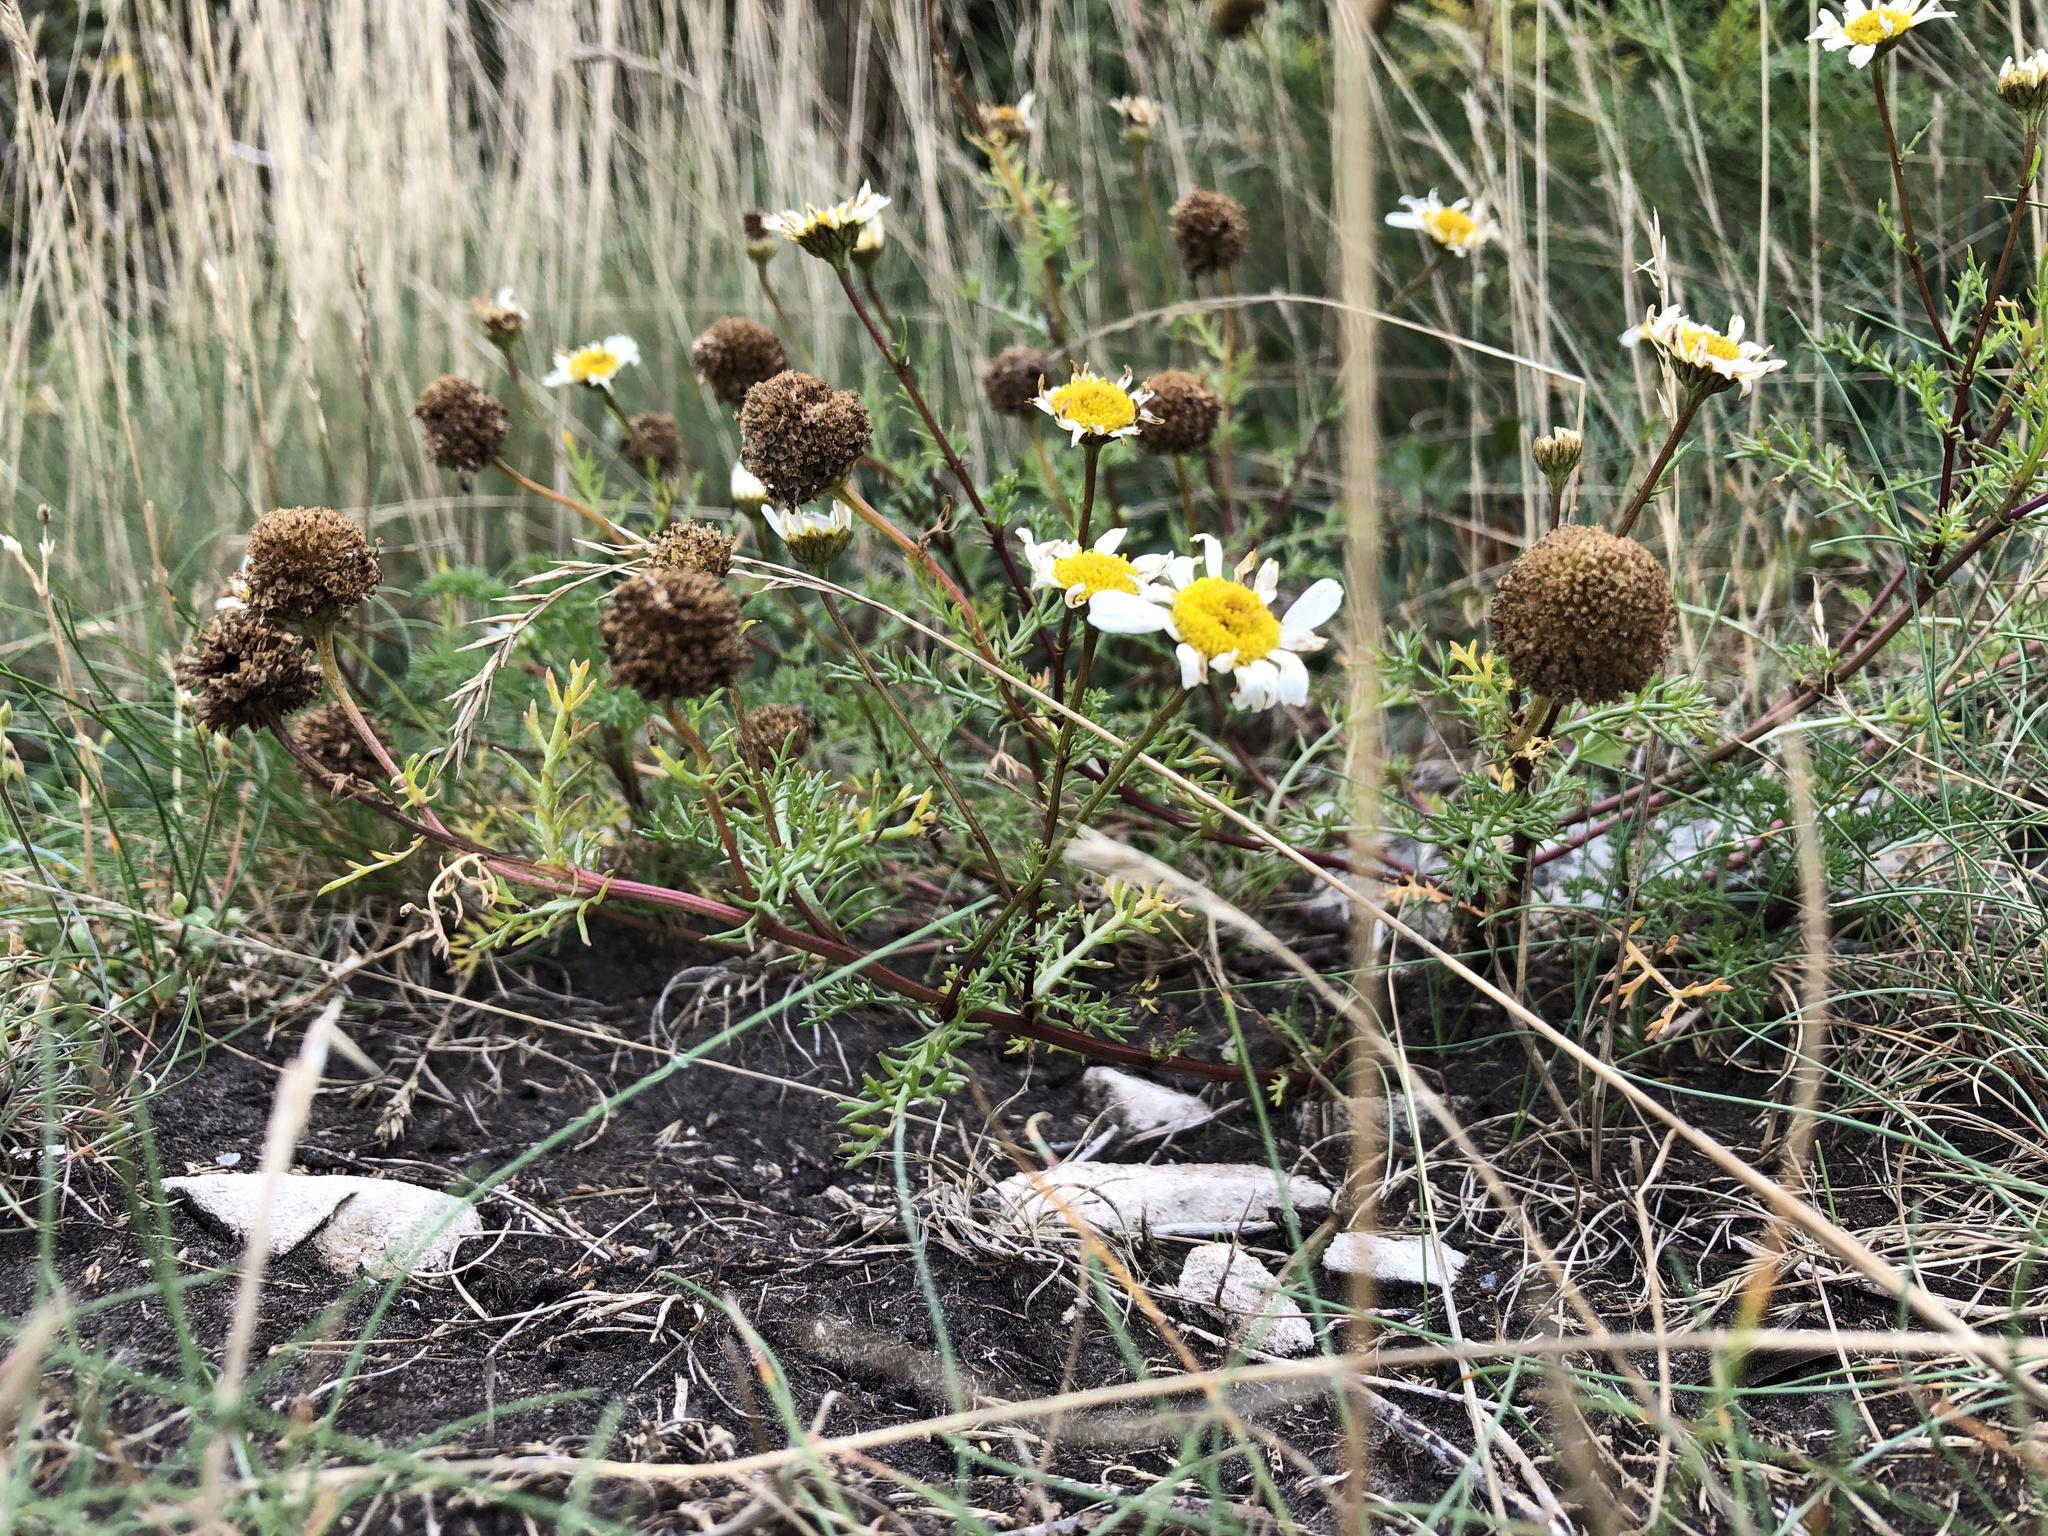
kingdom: Plantae
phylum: Tracheophyta
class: Magnoliopsida
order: Asterales
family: Asteraceae
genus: Tripleurospermum
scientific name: Tripleurospermum maritimum
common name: Sea mayweed
